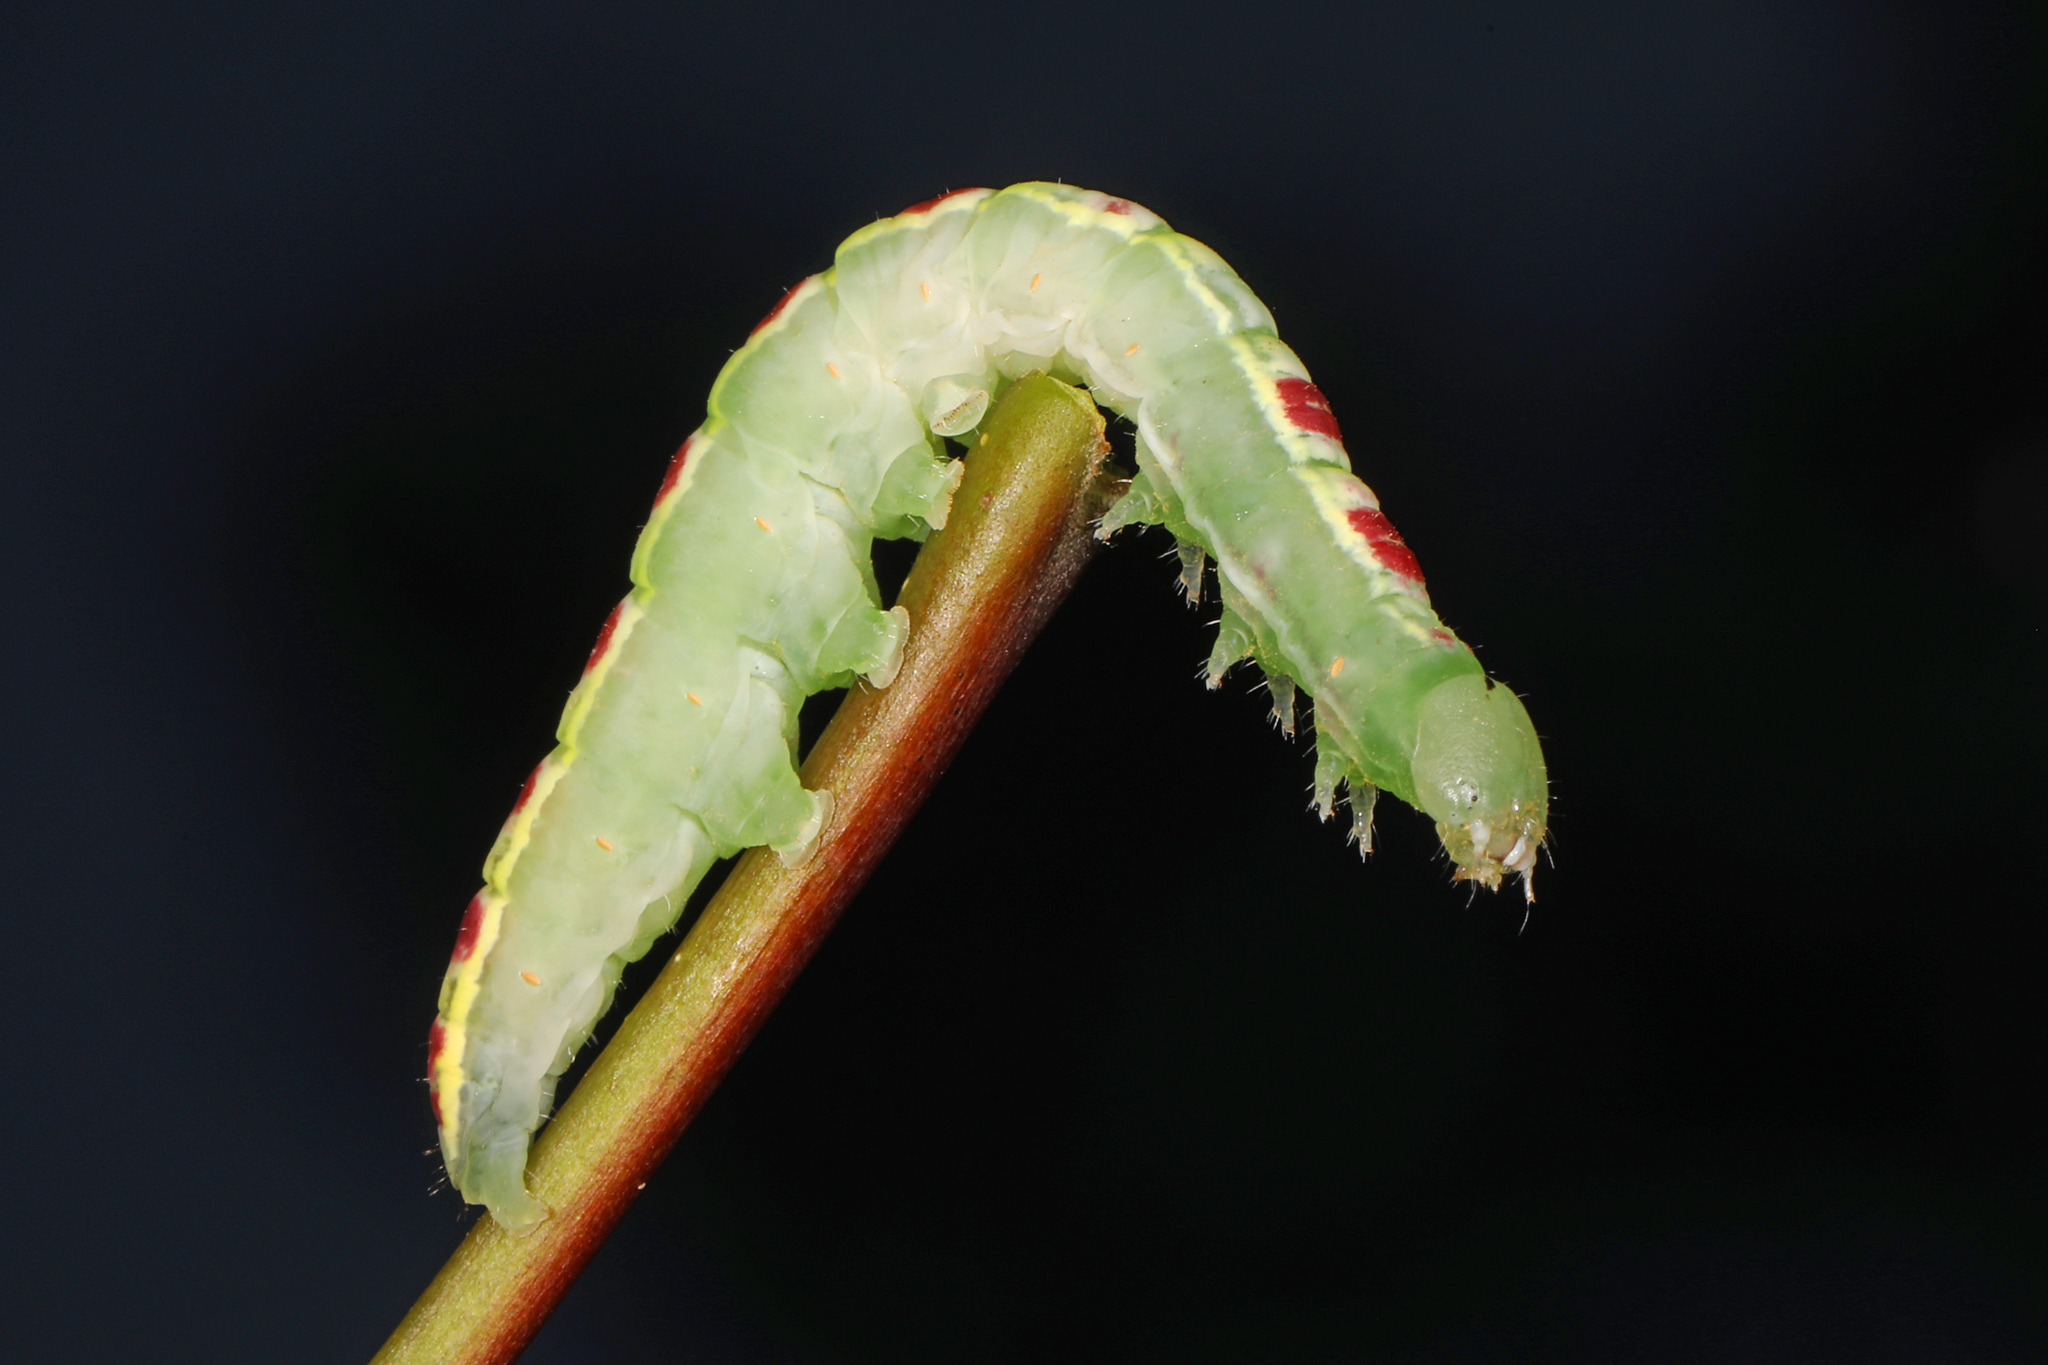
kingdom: Animalia
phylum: Arthropoda
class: Insecta
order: Lepidoptera
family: Notodontidae
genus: Gluphisia
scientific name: Gluphisia septentrionis
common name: Common gluphisia
